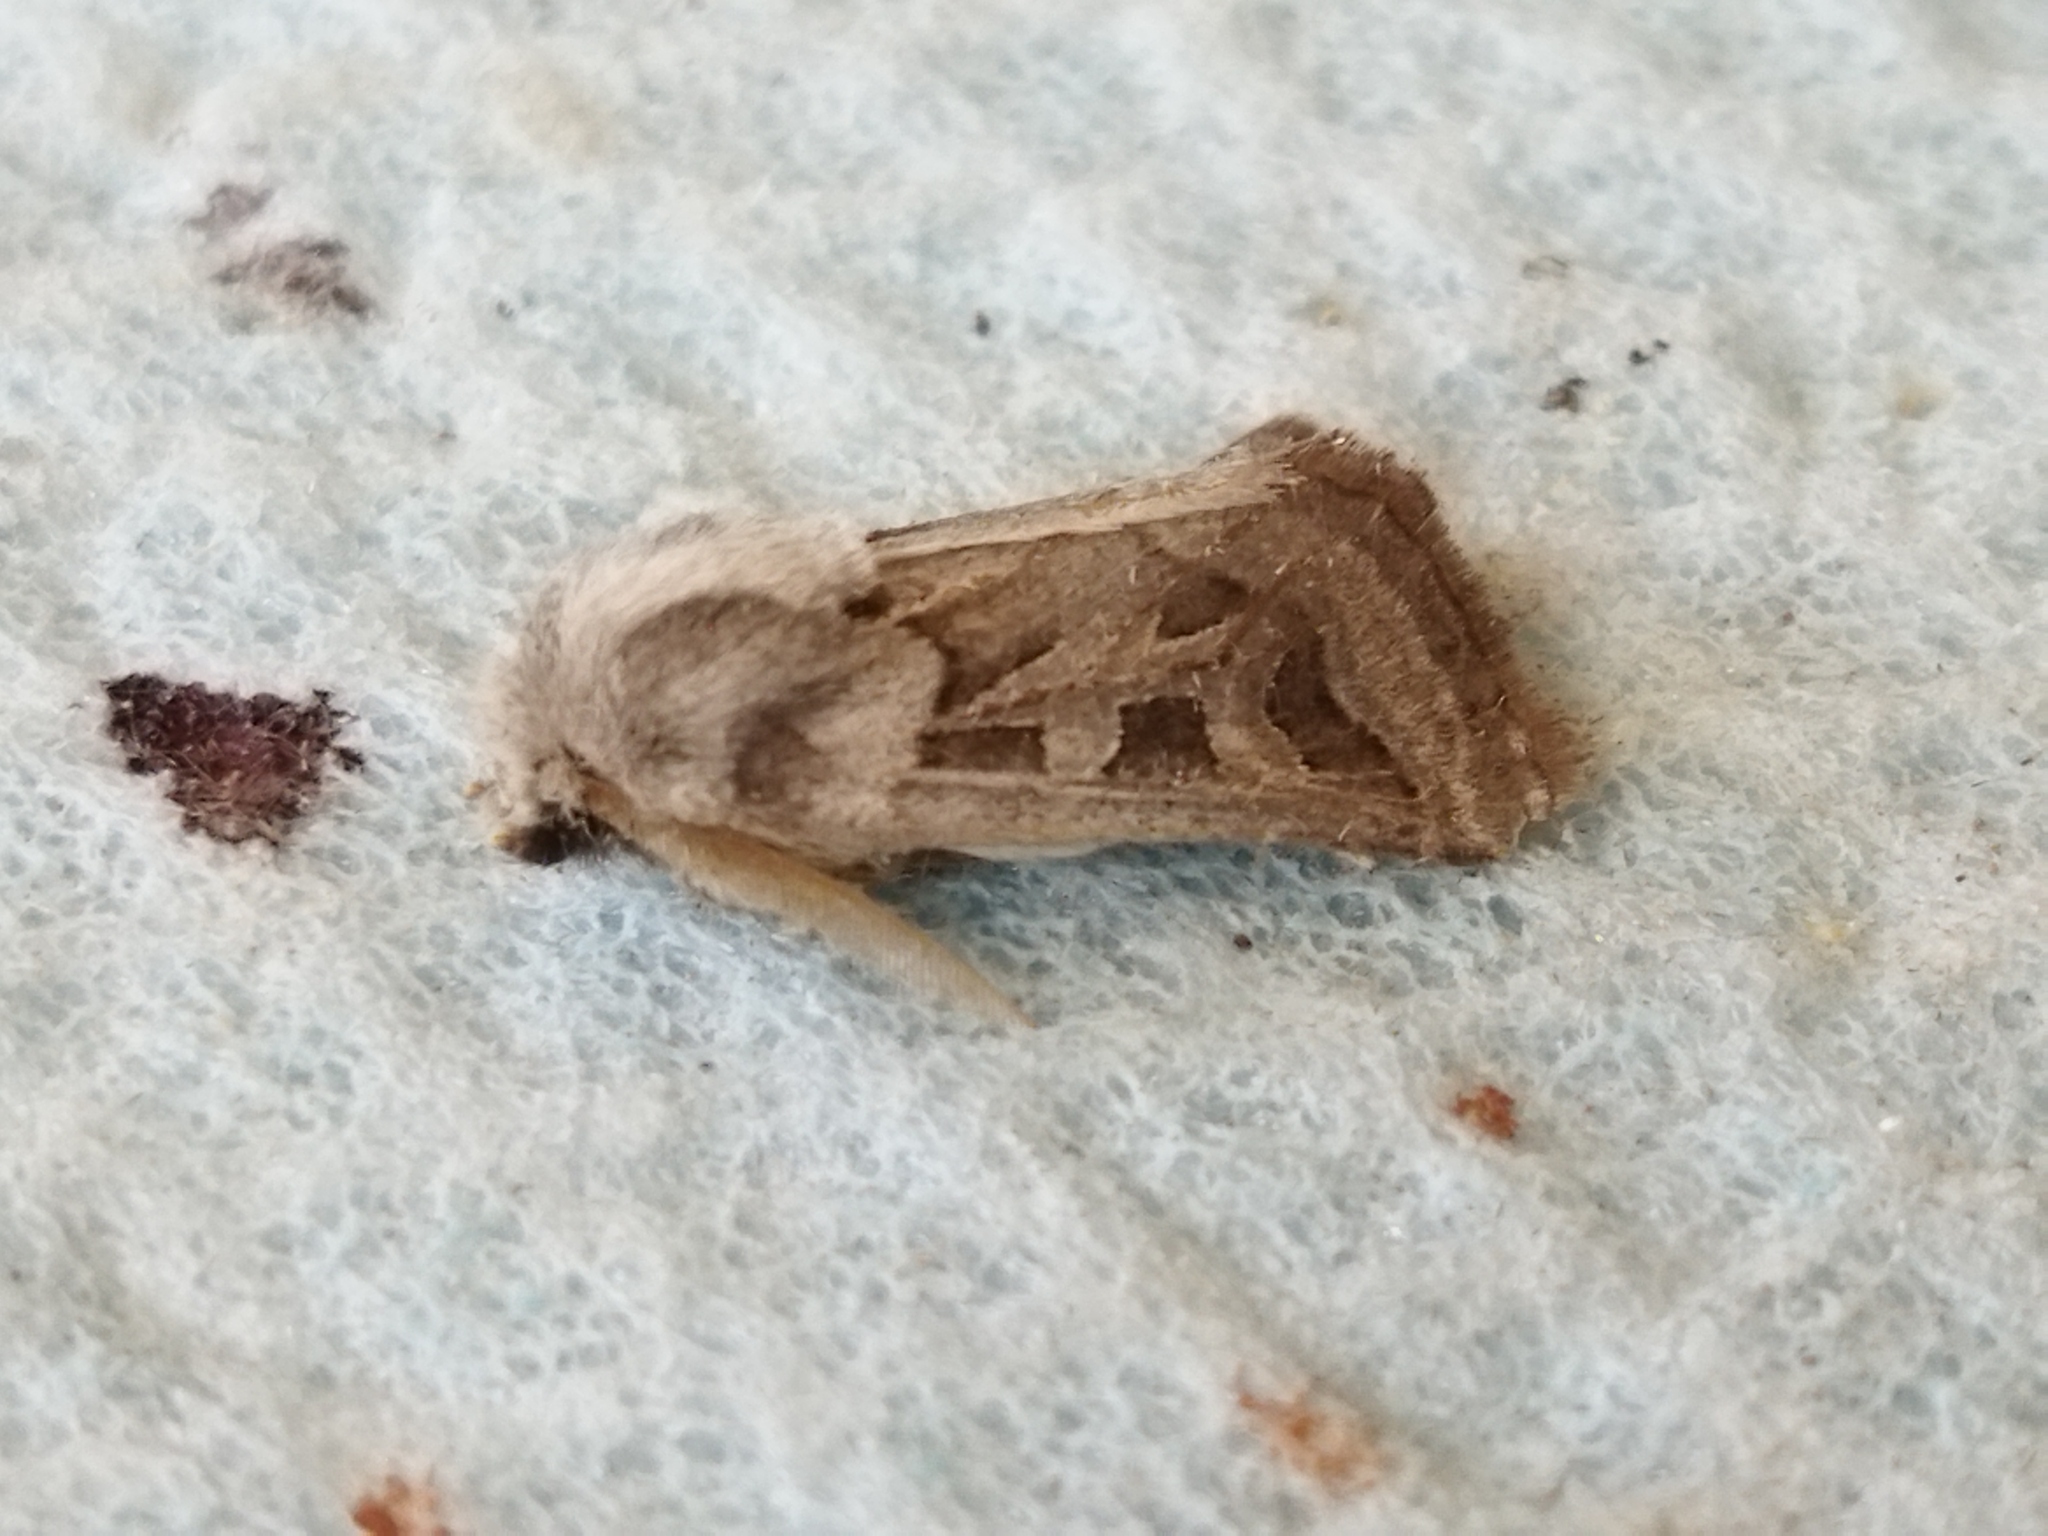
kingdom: Animalia
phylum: Arthropoda
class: Insecta
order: Lepidoptera
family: Noctuidae
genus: Episema
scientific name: Episema glaucina
